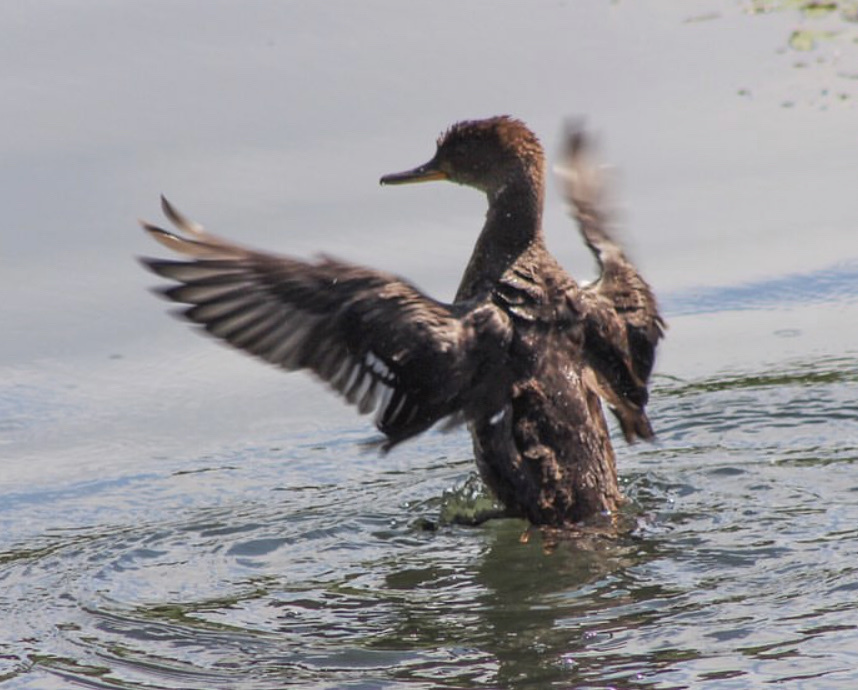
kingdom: Animalia
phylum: Chordata
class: Aves
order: Anseriformes
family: Anatidae
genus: Lophodytes
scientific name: Lophodytes cucullatus
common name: Hooded merganser
